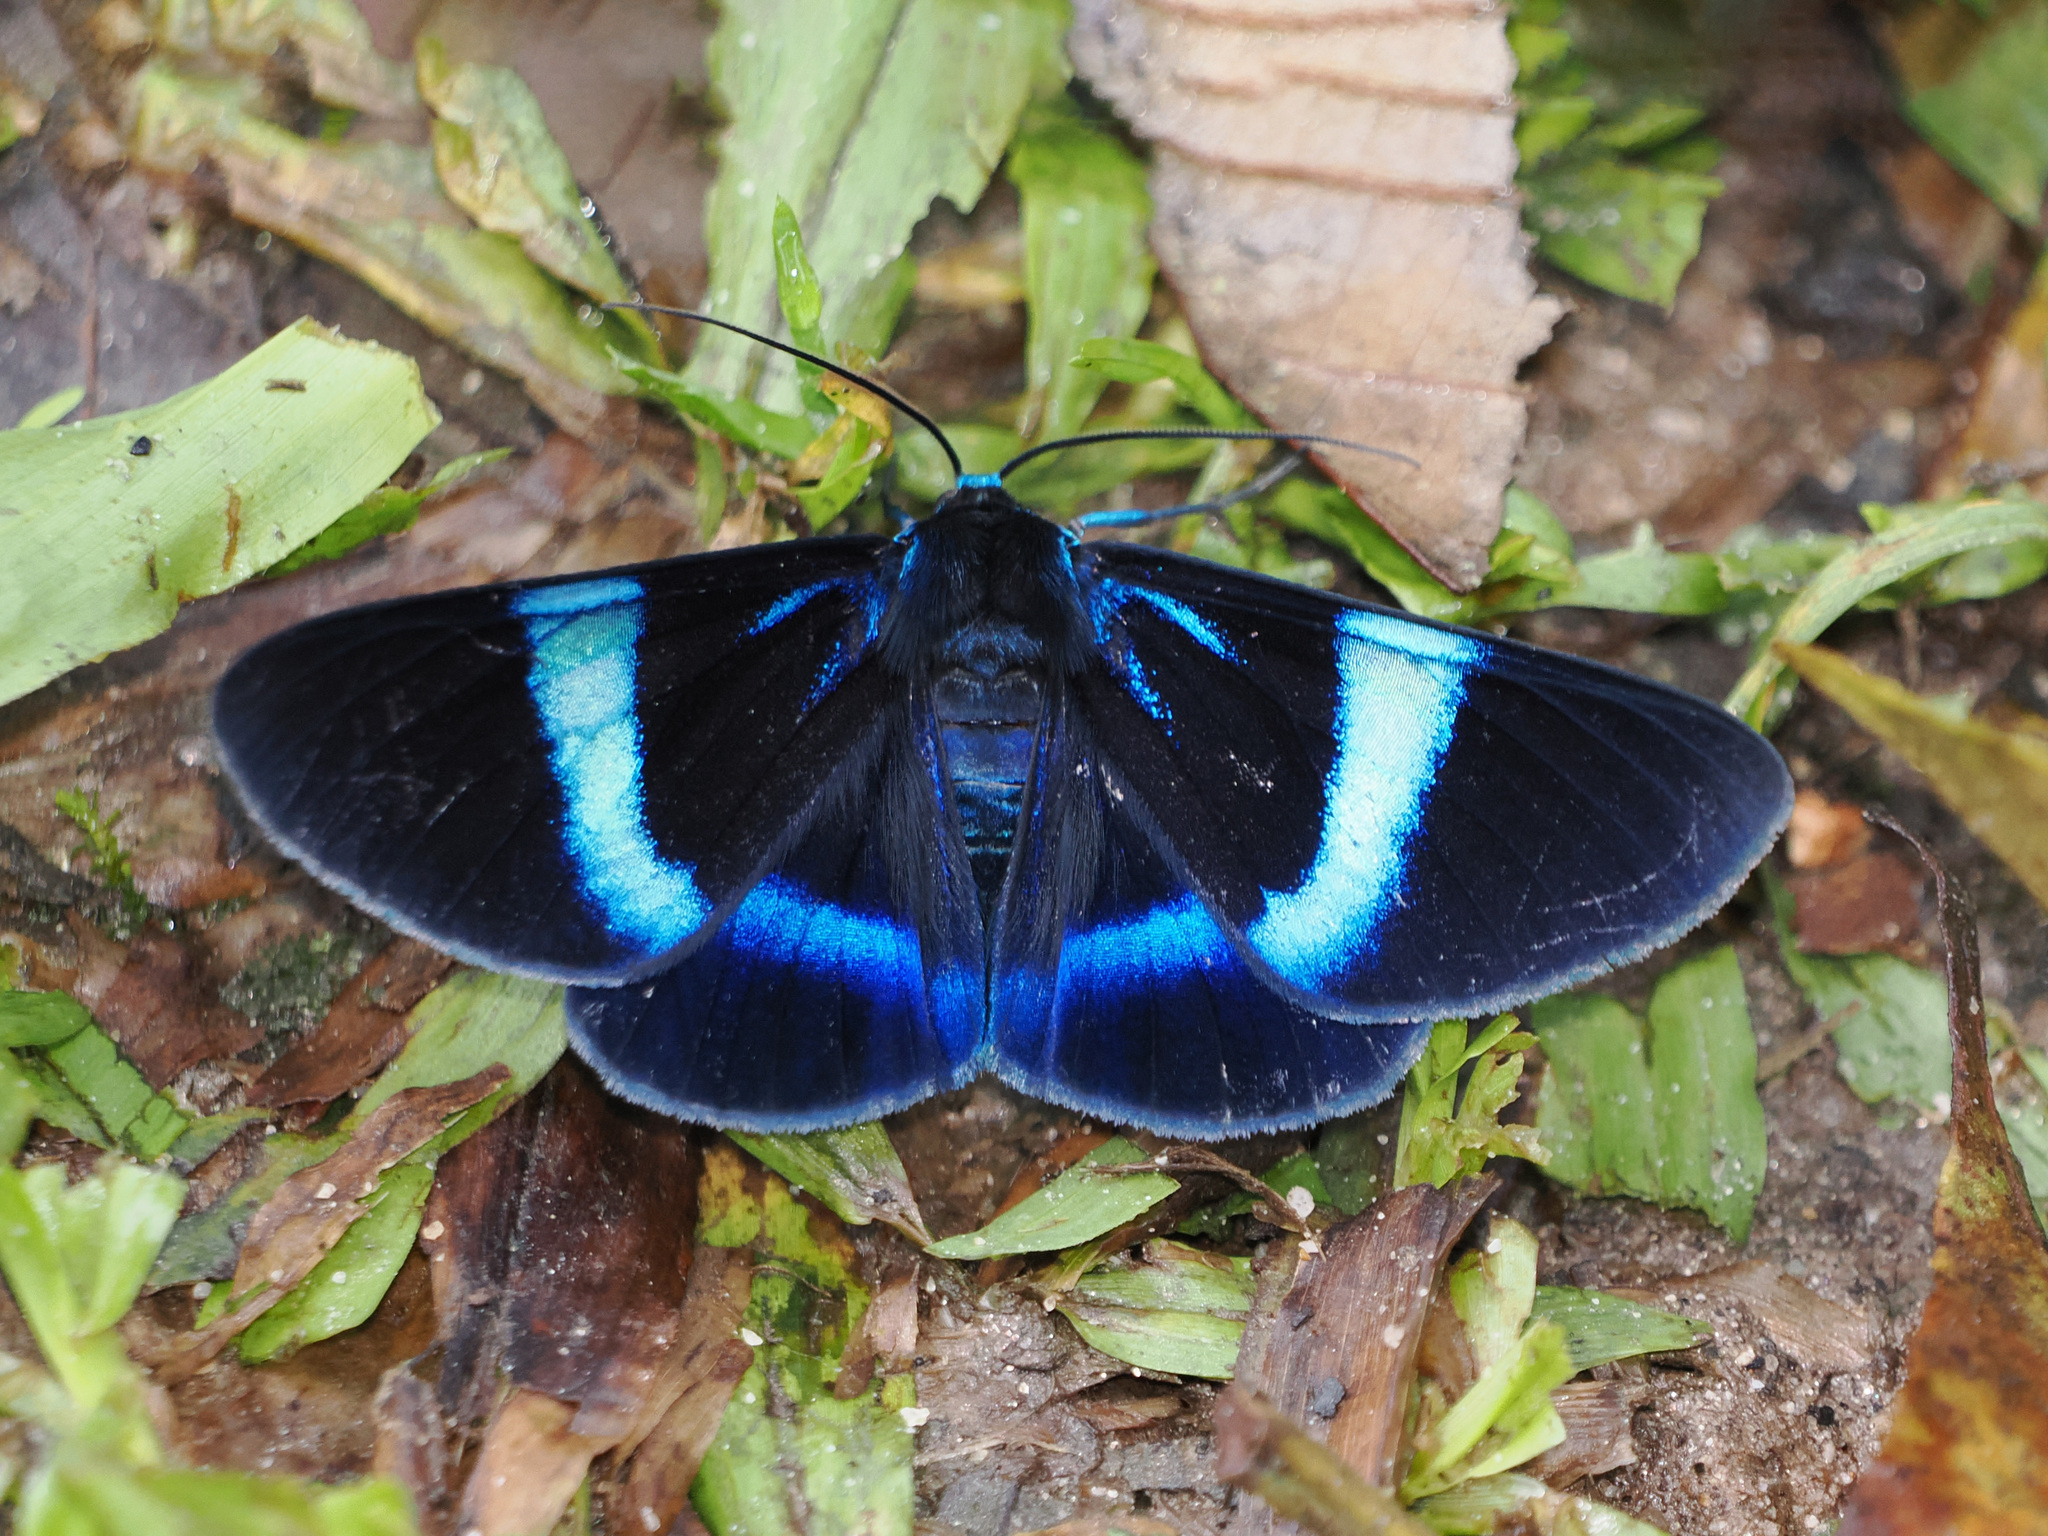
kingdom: Animalia
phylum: Arthropoda
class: Insecta
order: Lepidoptera
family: Geometridae
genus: Milionia
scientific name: Milionia
